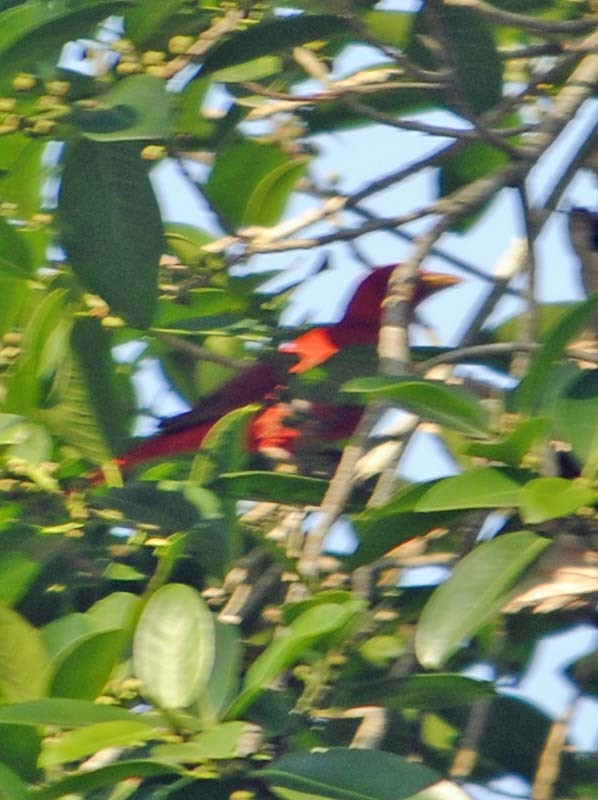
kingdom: Animalia
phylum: Chordata
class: Aves
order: Passeriformes
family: Cardinalidae
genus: Piranga
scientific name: Piranga rubra
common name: Summer tanager
